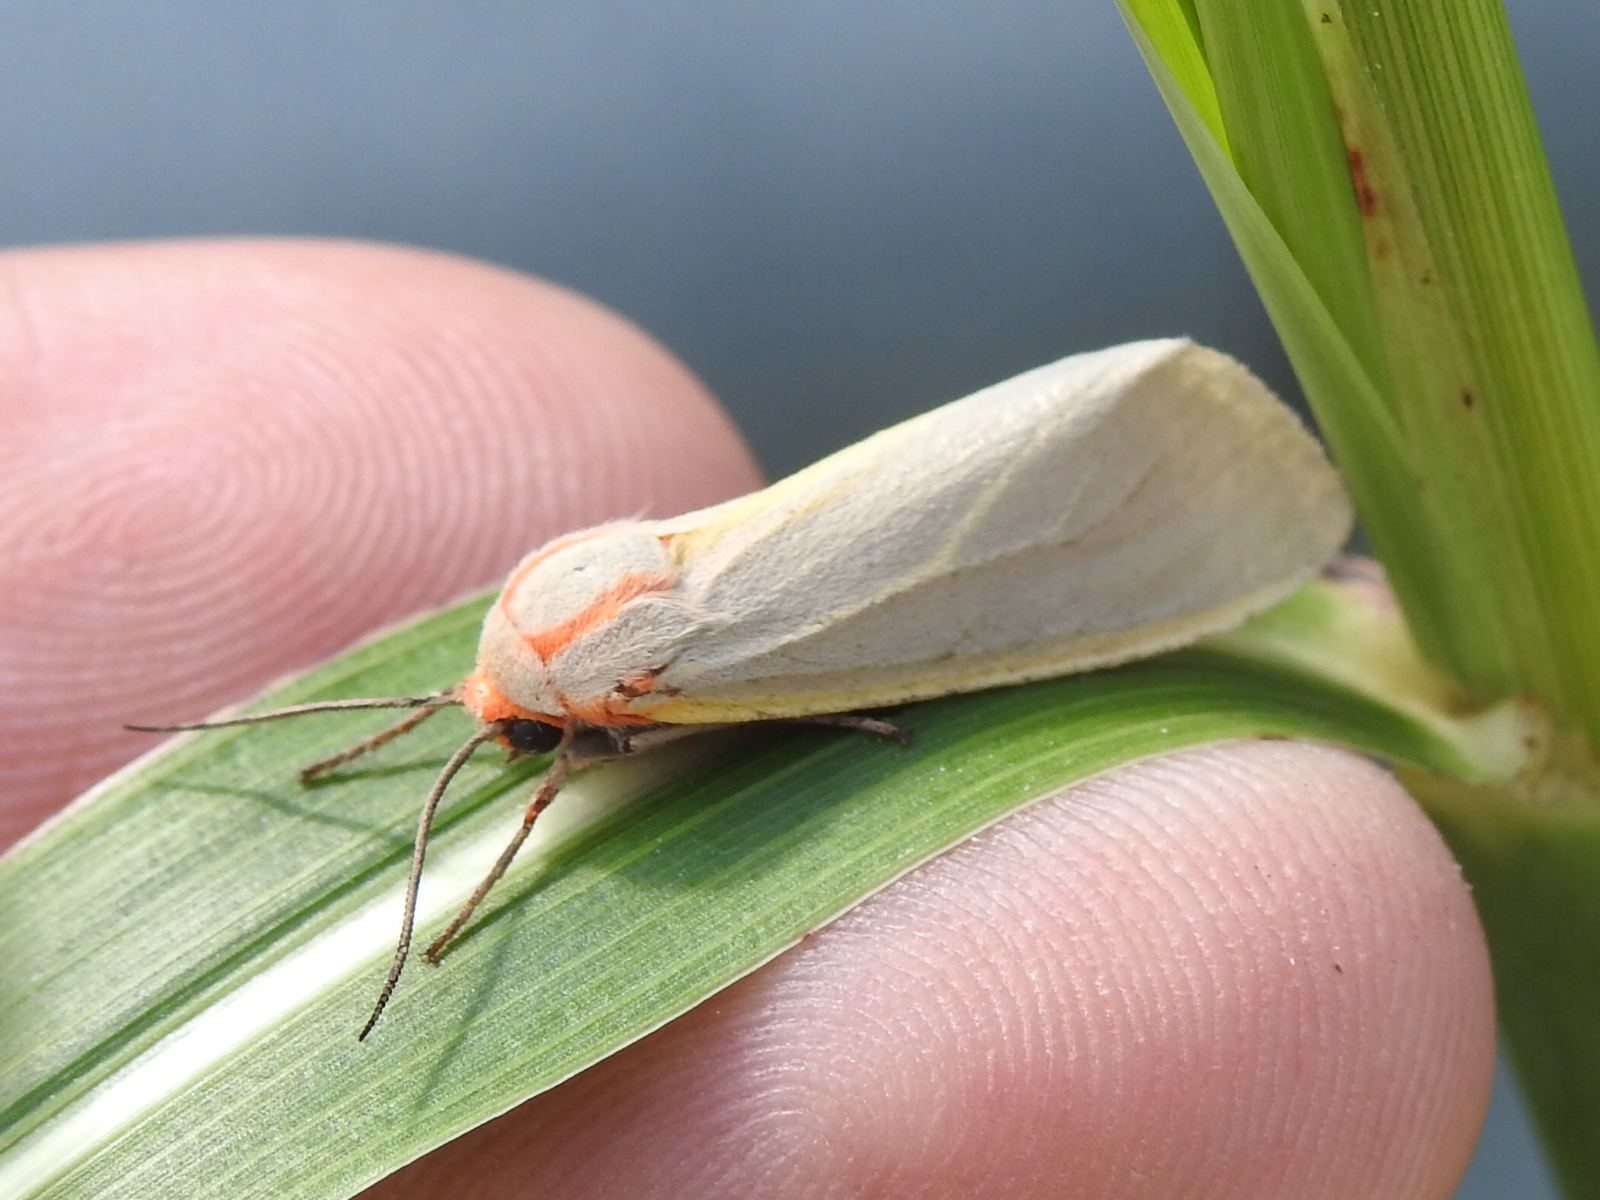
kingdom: Animalia
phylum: Arthropoda
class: Insecta
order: Lepidoptera
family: Erebidae
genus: Pygarctia
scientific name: Pygarctia abdominalis
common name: Yellow-edged pygarctia moth
